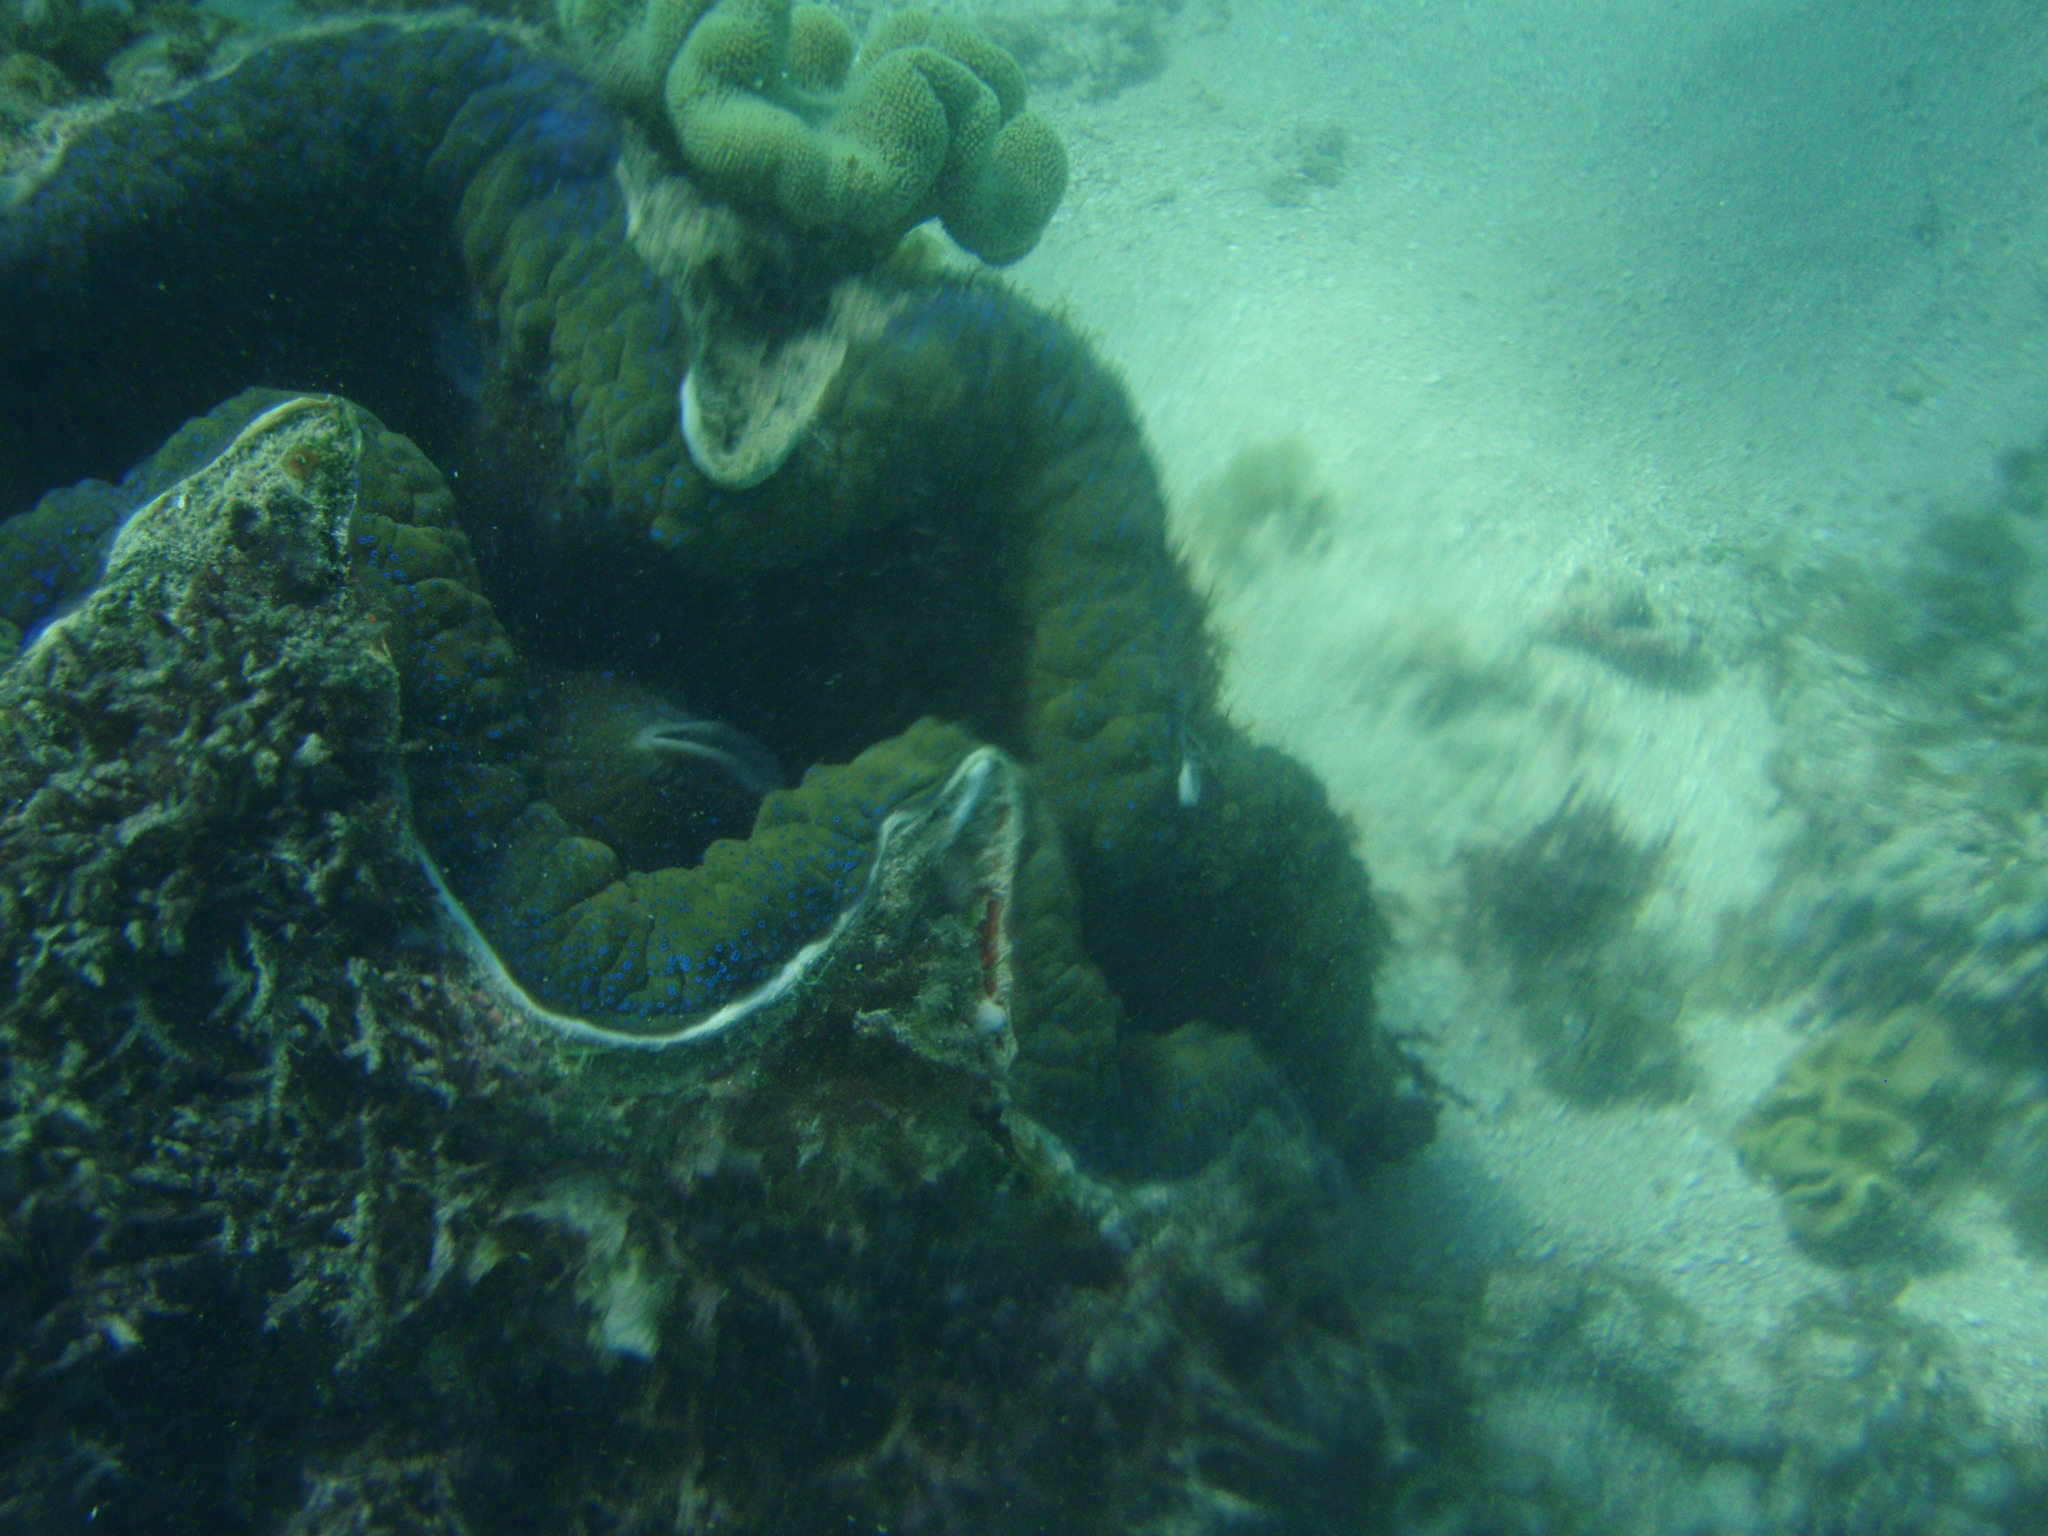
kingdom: Animalia
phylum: Mollusca
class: Bivalvia
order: Cardiida
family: Cardiidae
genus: Tridacna
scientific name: Tridacna gigas
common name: Giant clam
